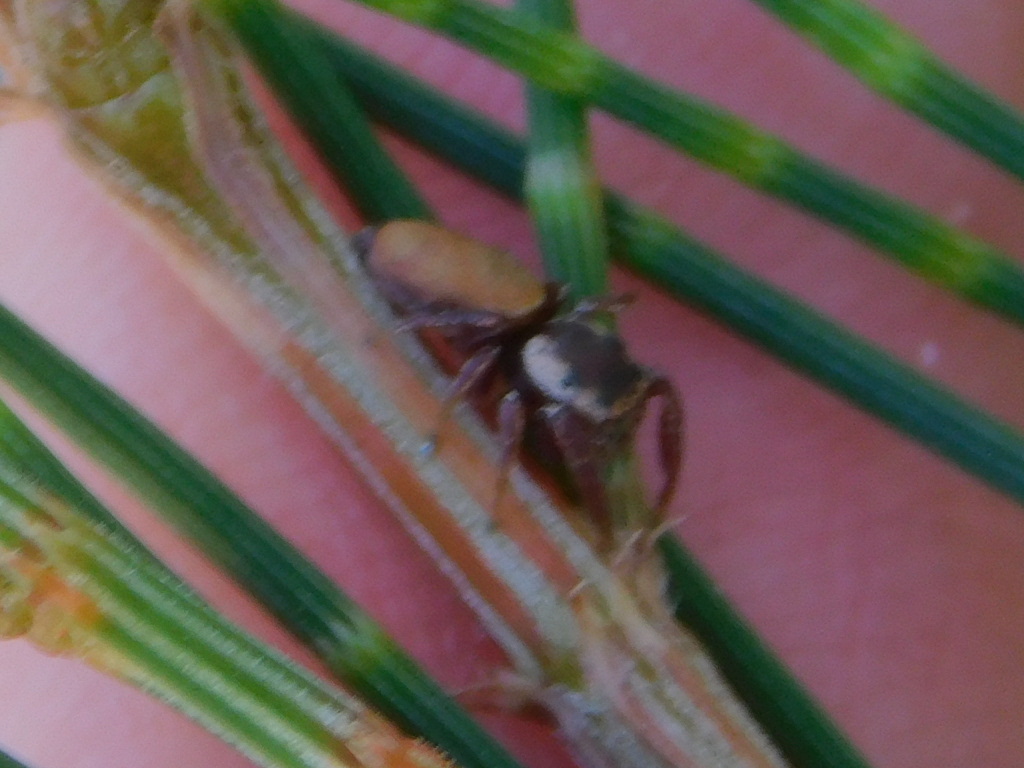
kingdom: Animalia
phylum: Arthropoda
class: Arachnida
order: Araneae
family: Salticidae
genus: Beata
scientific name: Beata wickhami
